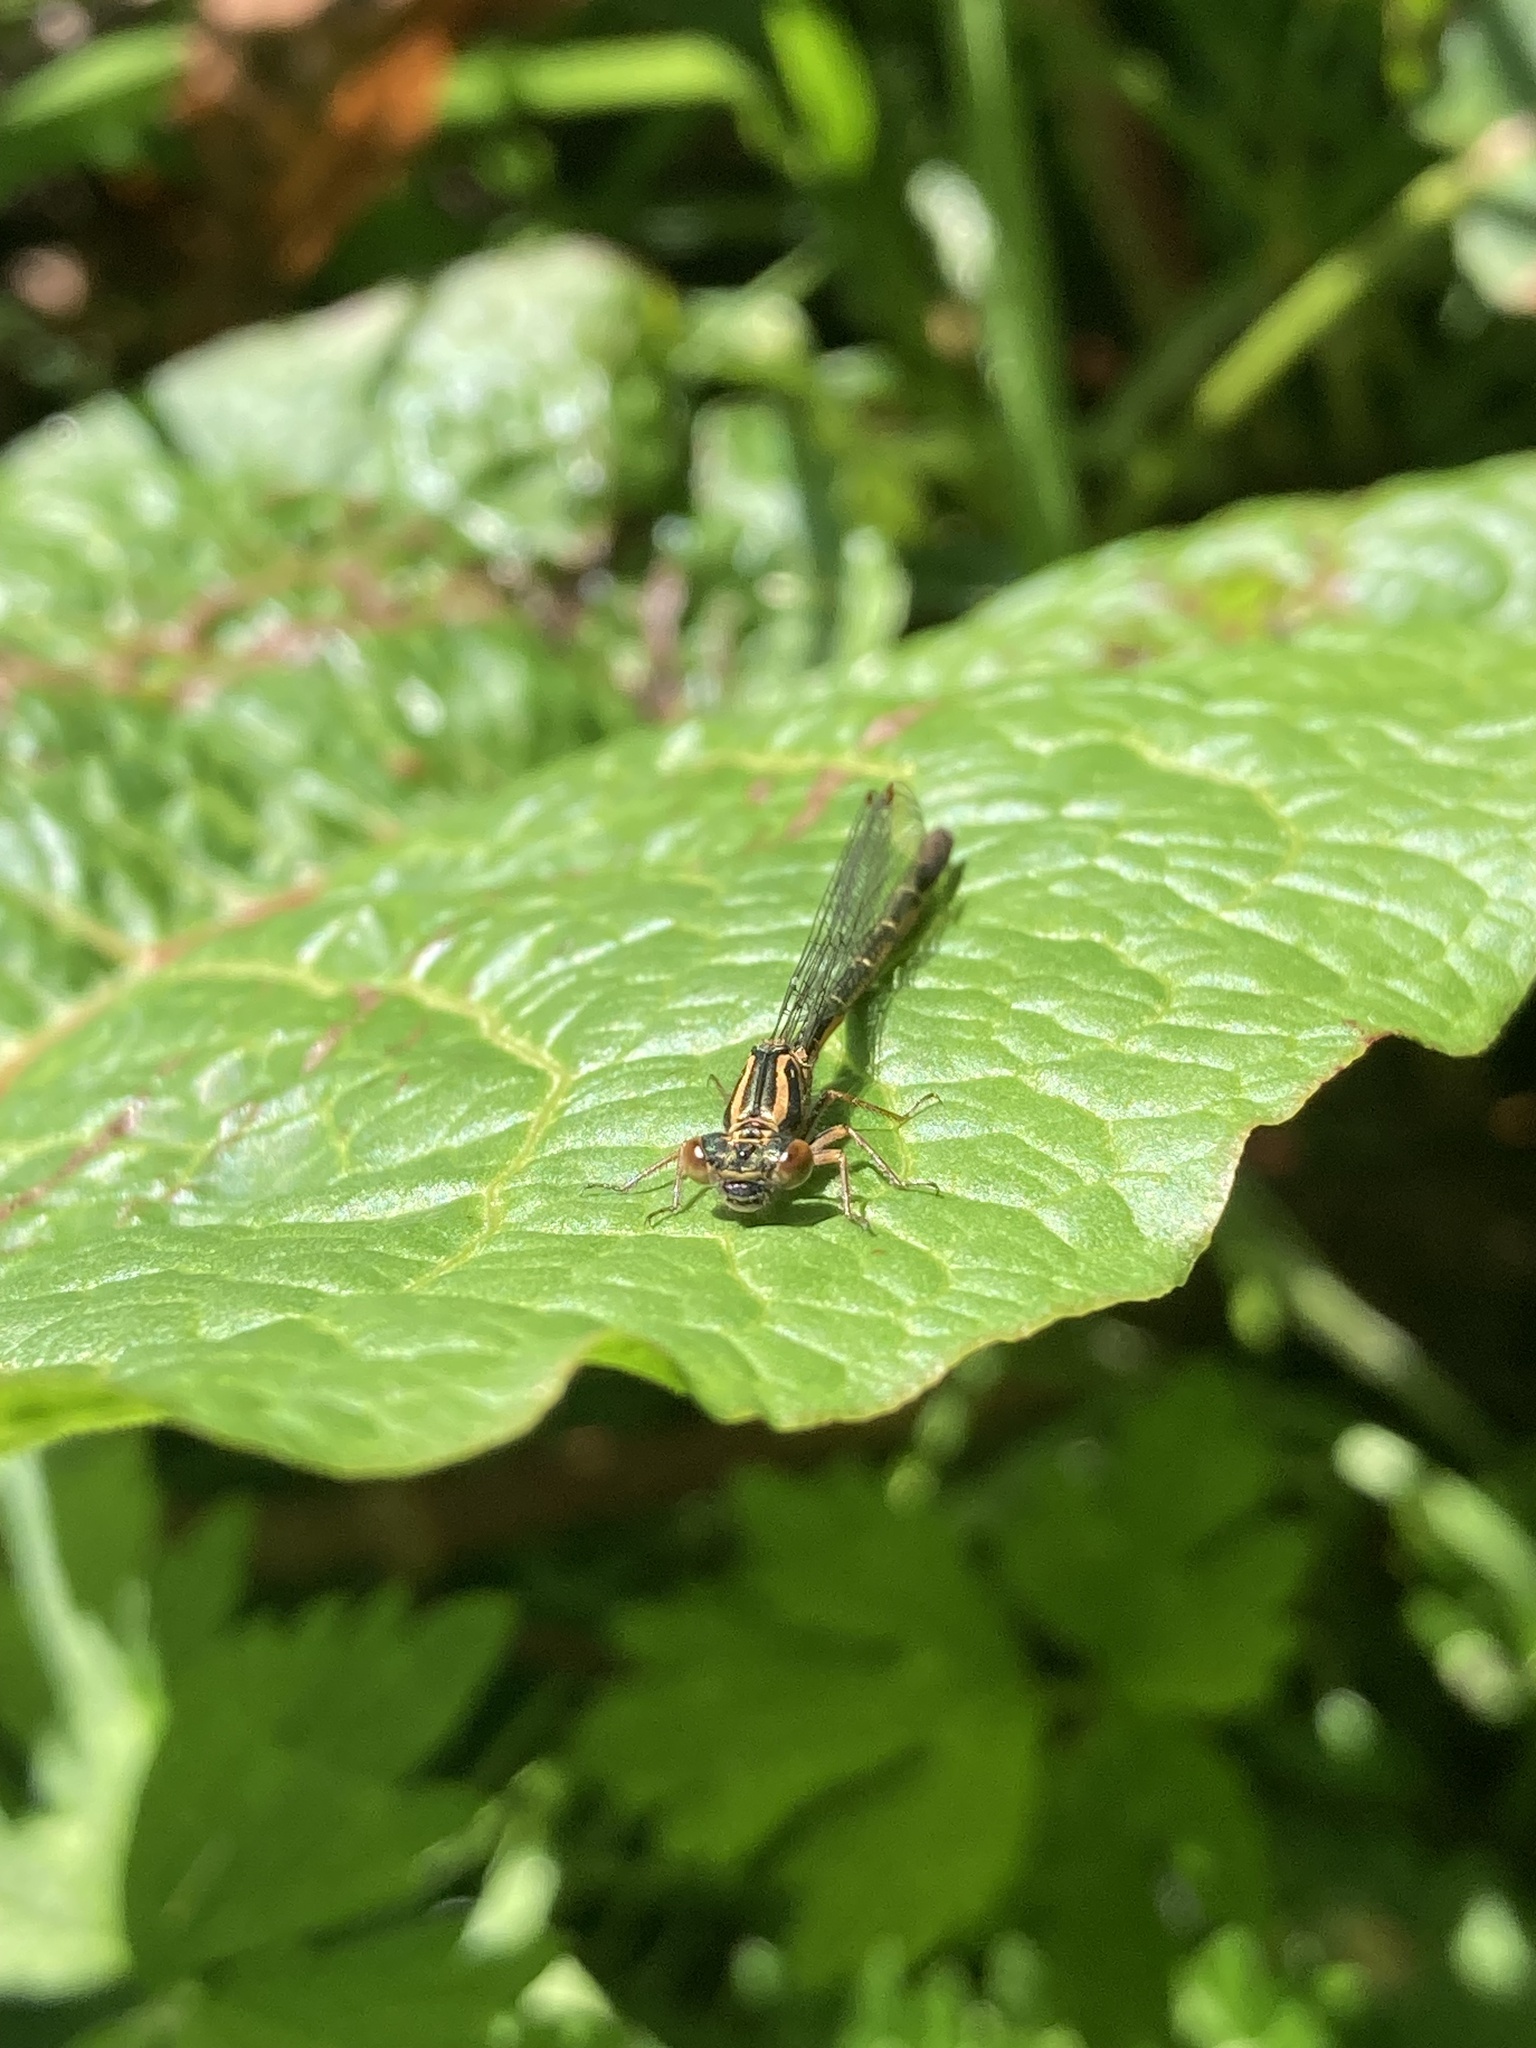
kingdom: Animalia
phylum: Arthropoda
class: Insecta
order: Odonata
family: Coenagrionidae
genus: Xanthocnemis
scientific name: Xanthocnemis zealandica
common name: Common redcoat damselfly
